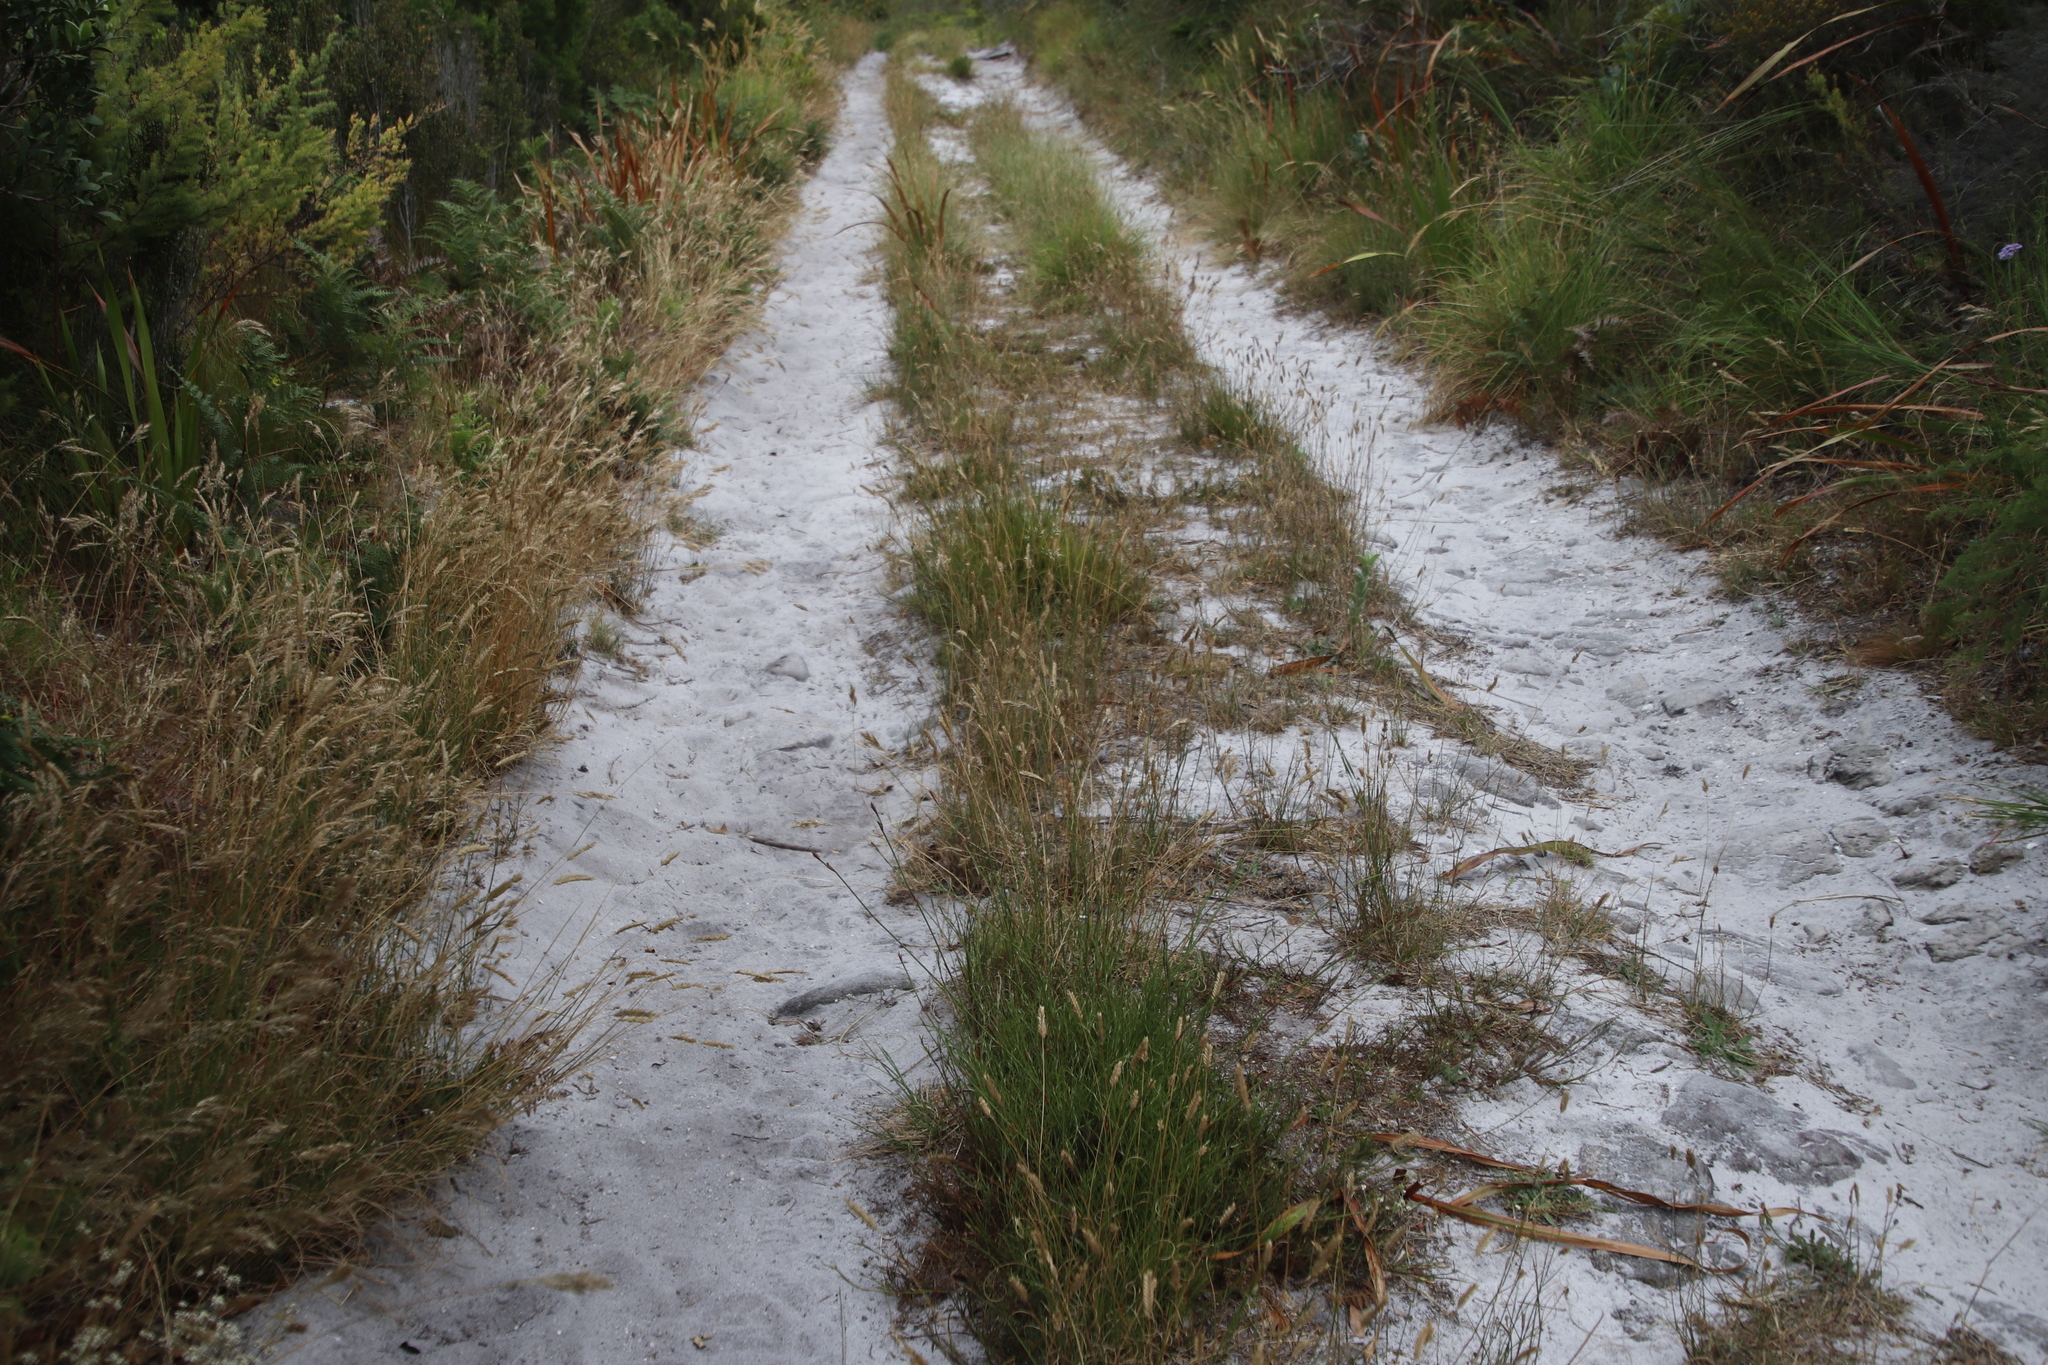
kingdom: Plantae
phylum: Tracheophyta
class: Liliopsida
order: Poales
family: Poaceae
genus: Tribolium
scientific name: Tribolium uniolae
